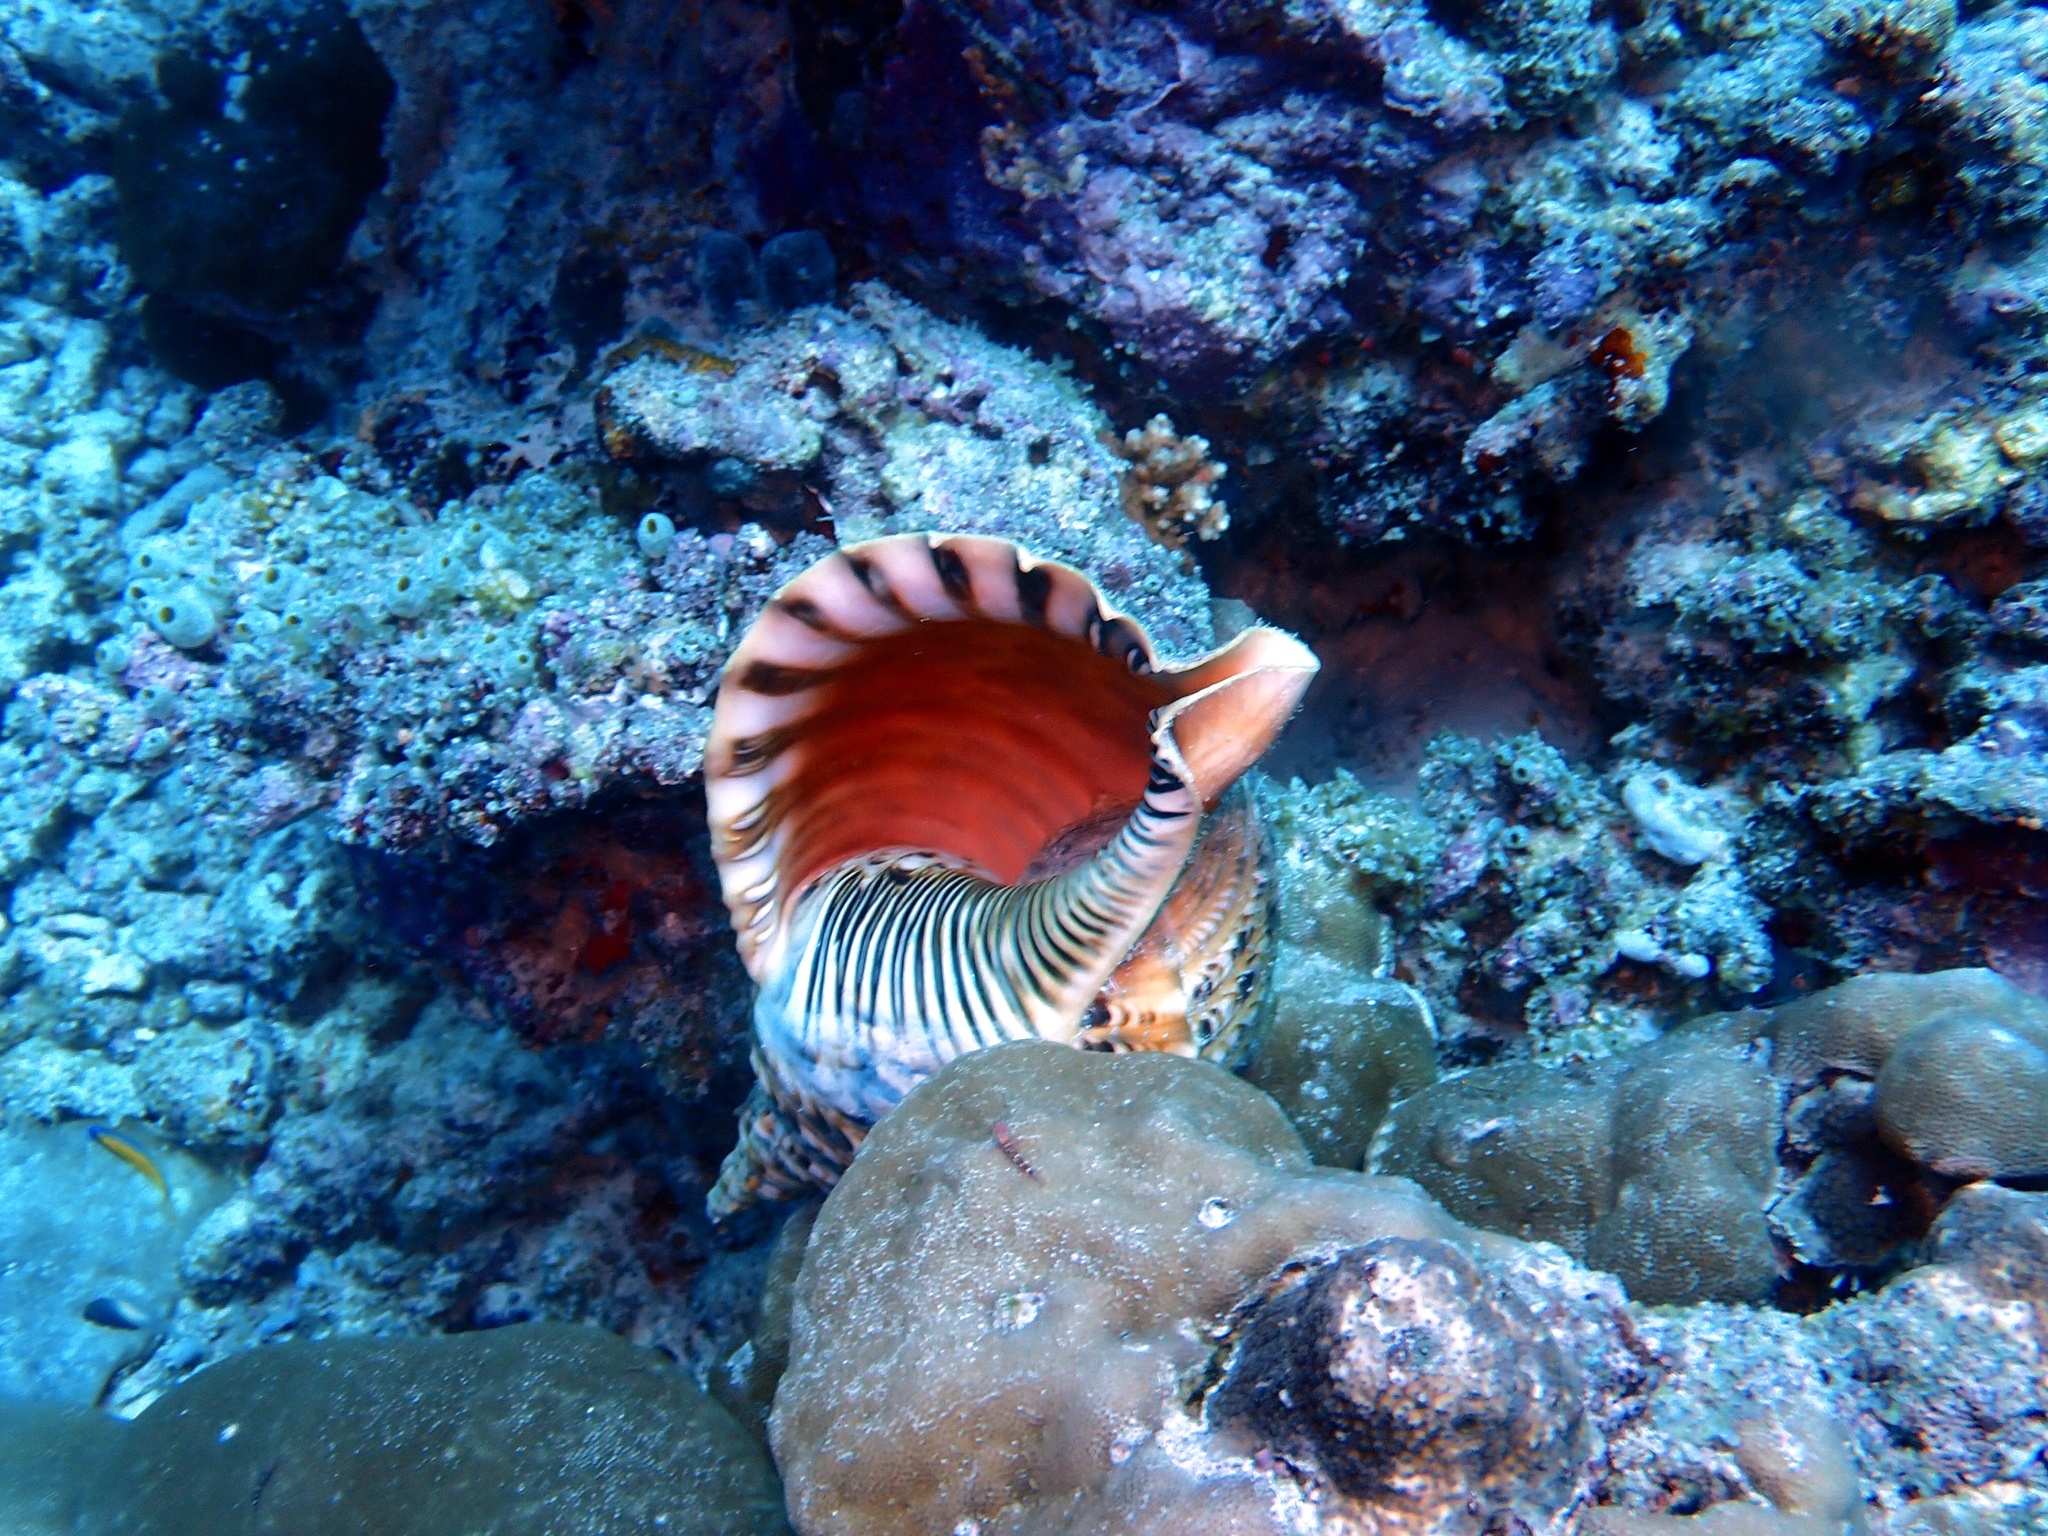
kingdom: Animalia
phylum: Mollusca
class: Gastropoda
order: Littorinimorpha
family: Charoniidae
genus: Charonia
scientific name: Charonia tritonis
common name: Pacific triton
